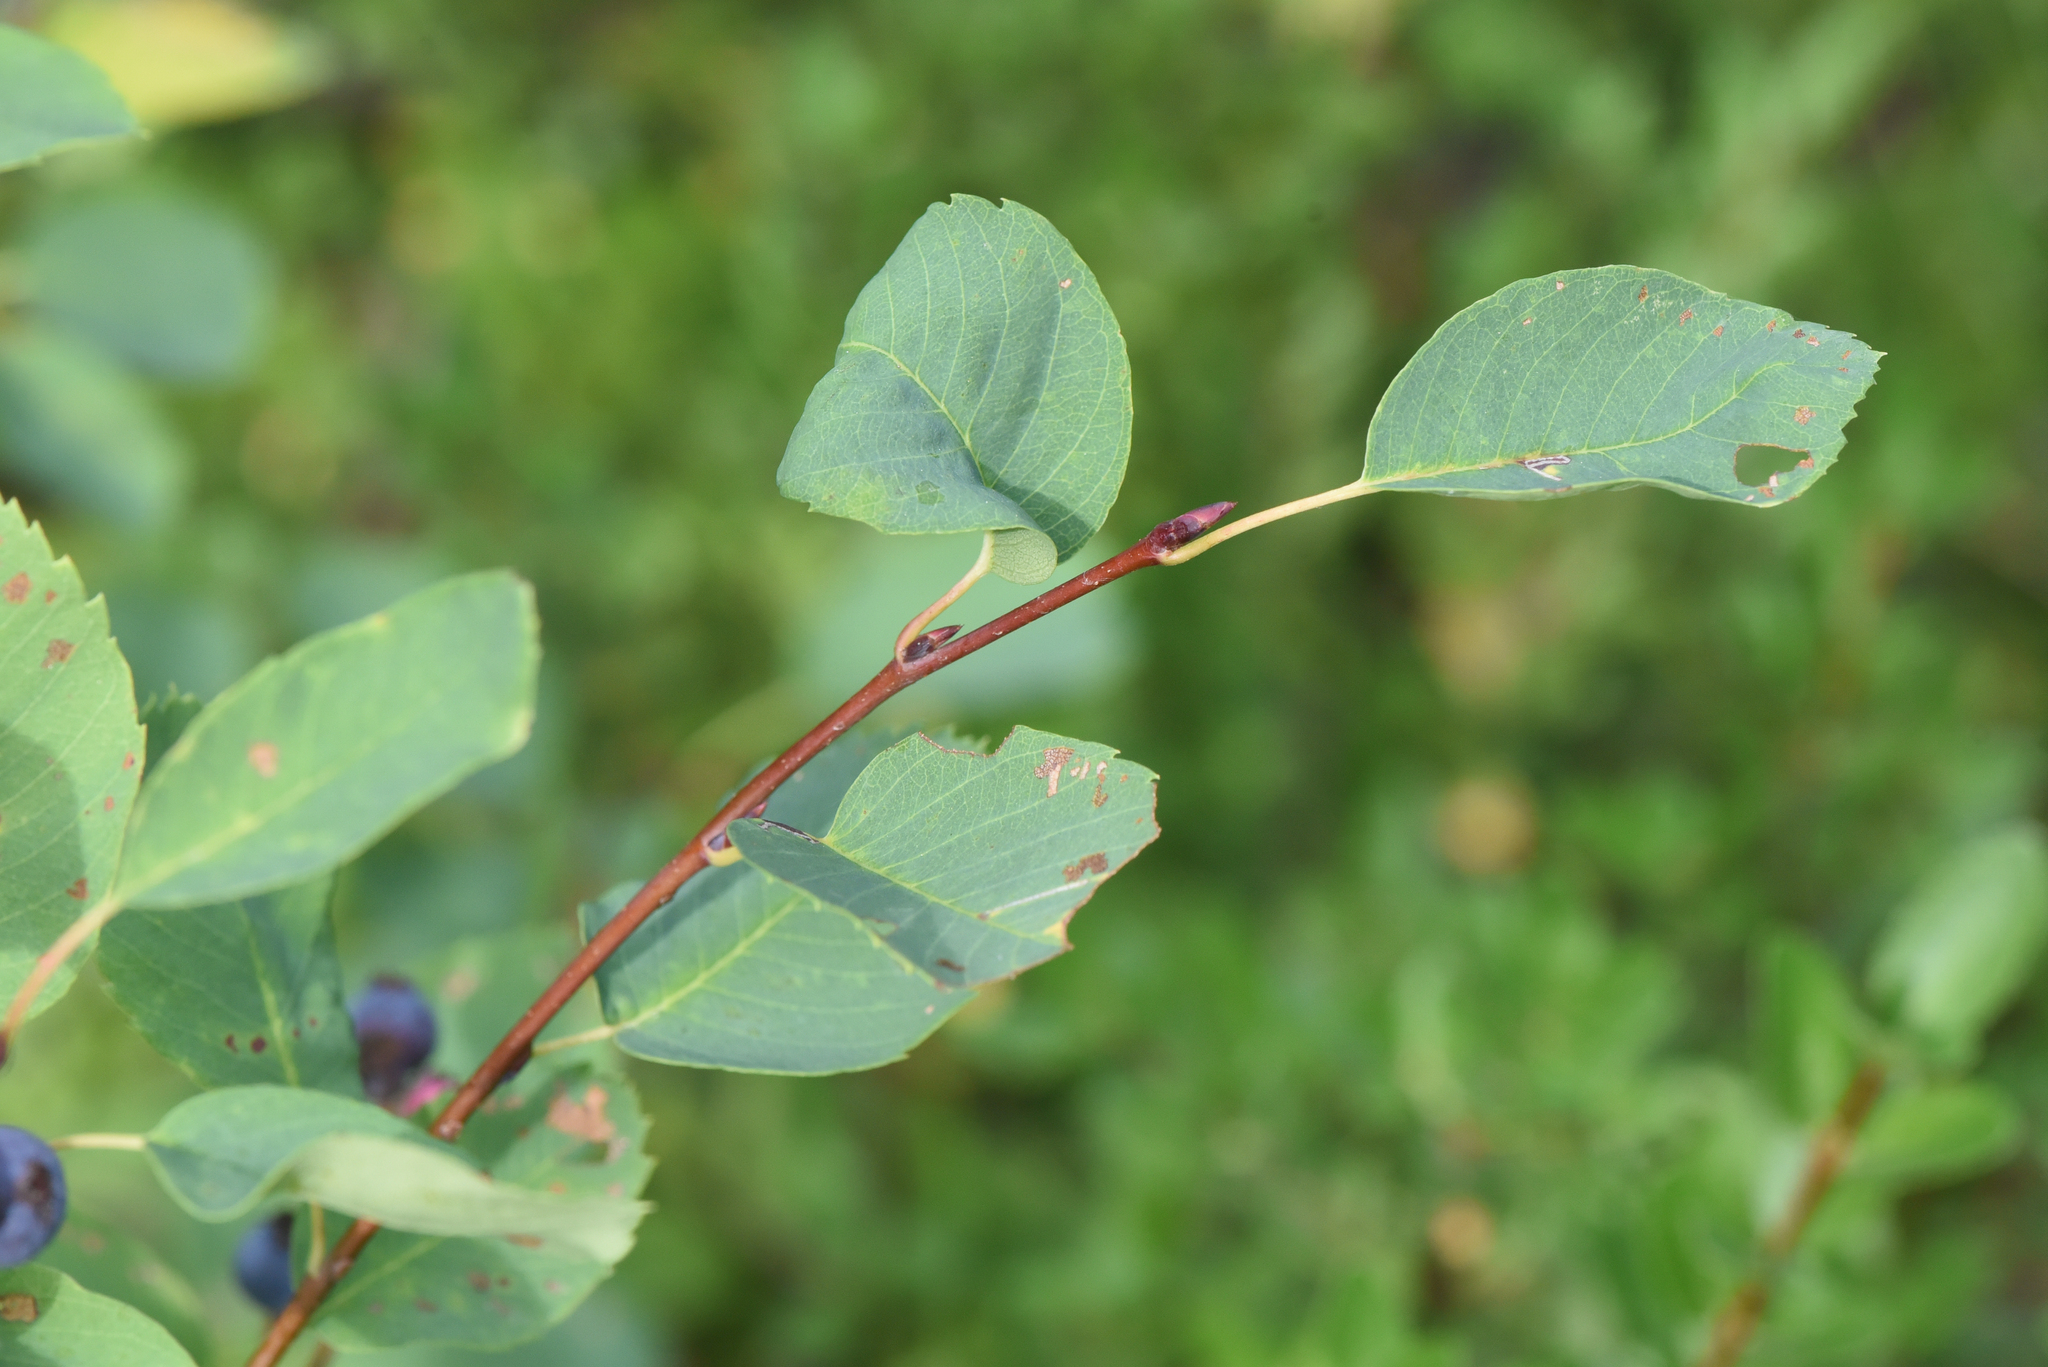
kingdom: Plantae
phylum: Tracheophyta
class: Magnoliopsida
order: Rosales
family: Rosaceae
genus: Amelanchier
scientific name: Amelanchier alnifolia
